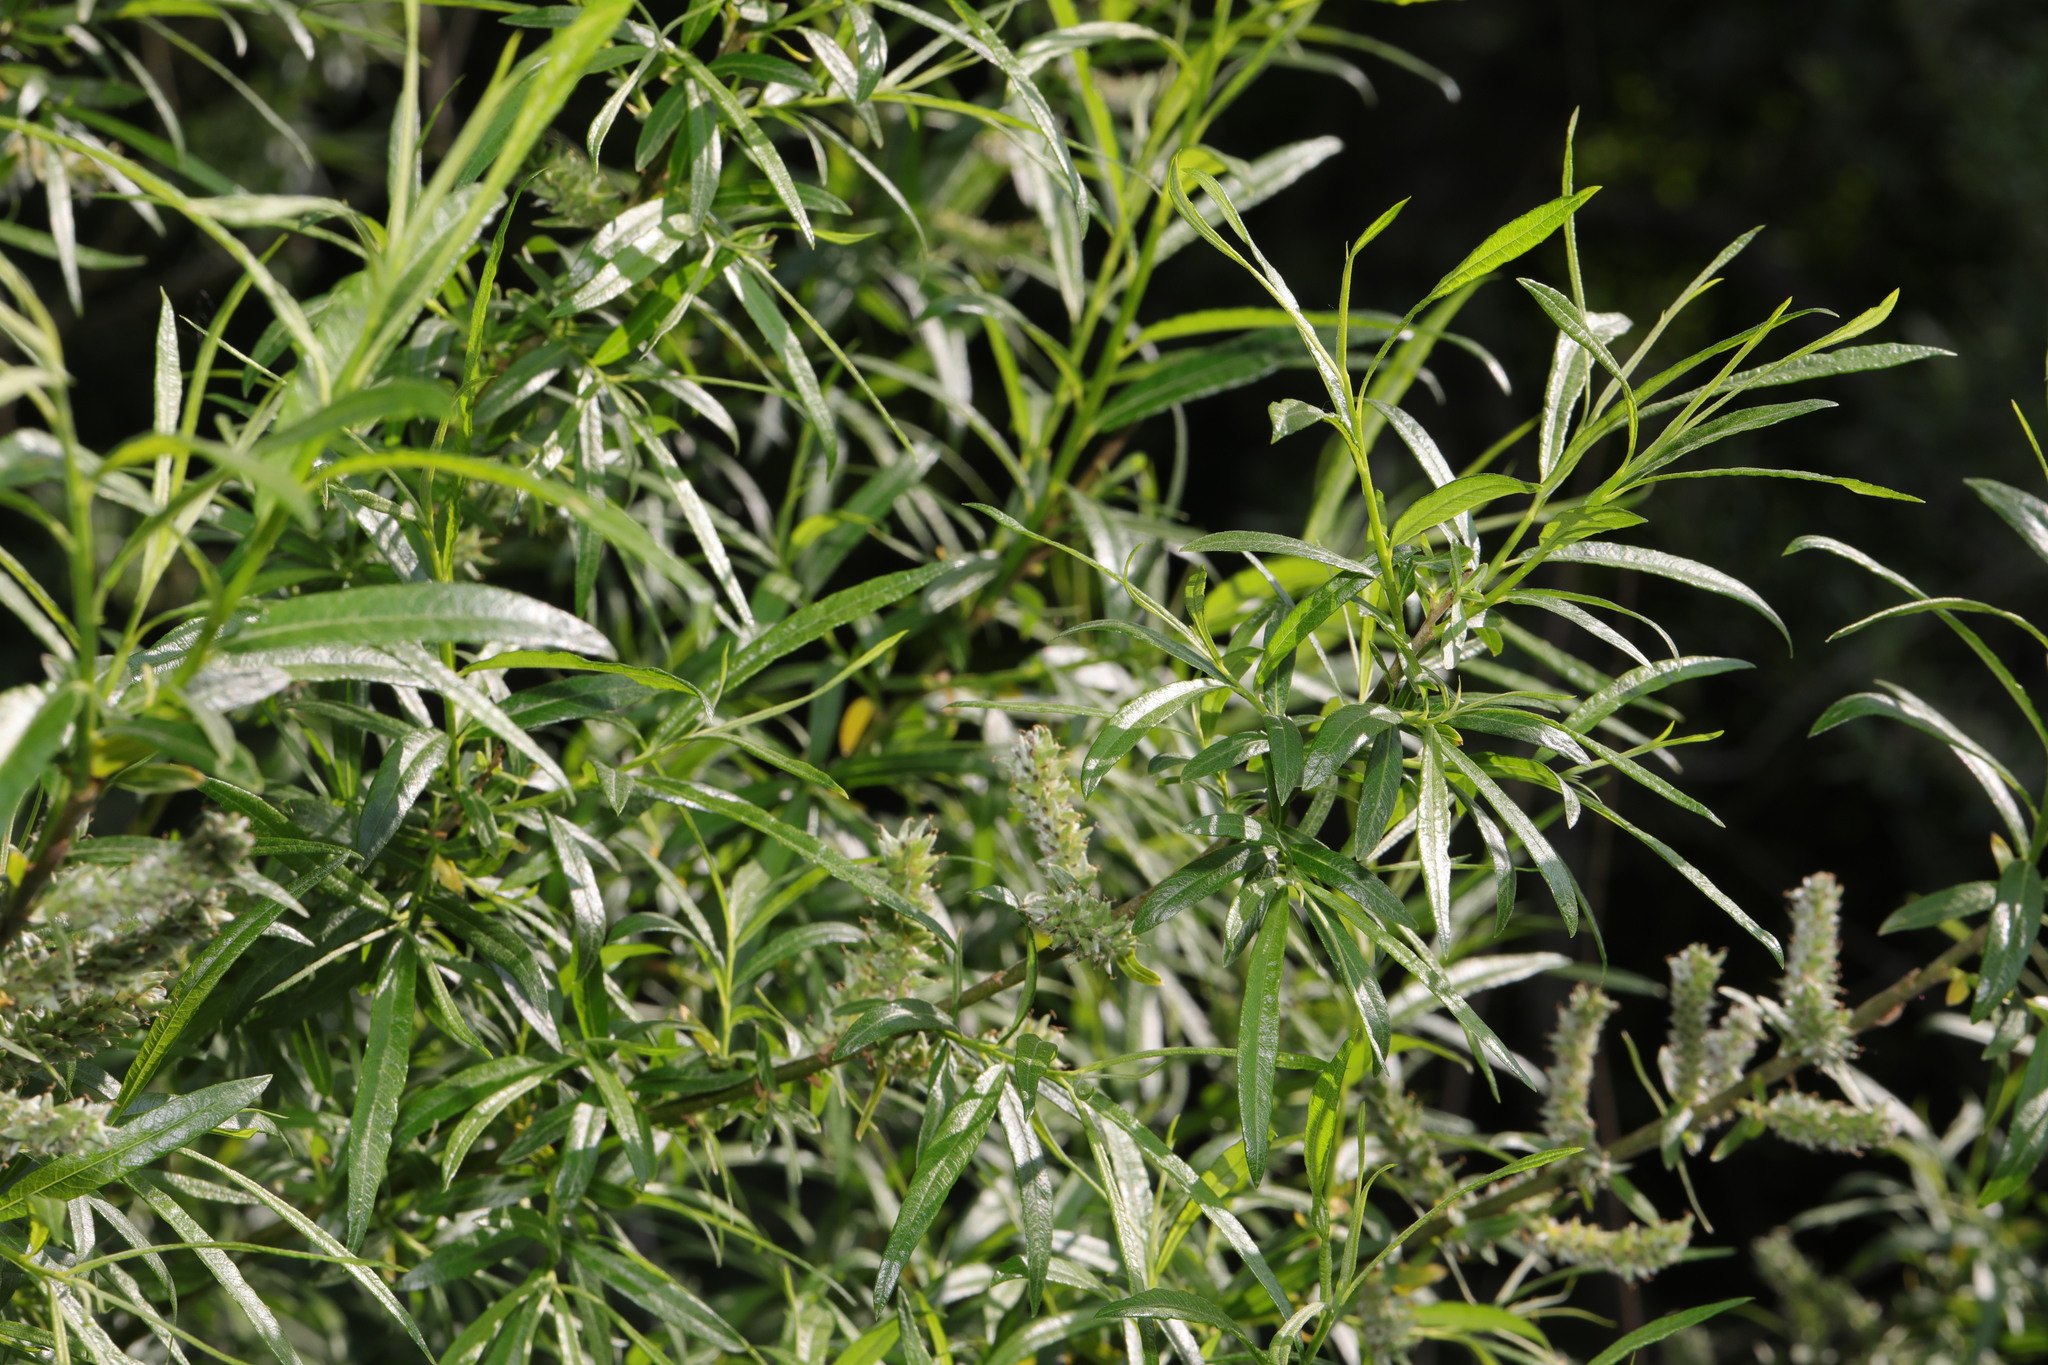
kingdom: Plantae
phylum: Tracheophyta
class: Magnoliopsida
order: Malpighiales
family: Salicaceae
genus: Salix
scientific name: Salix viminalis
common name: Osier
